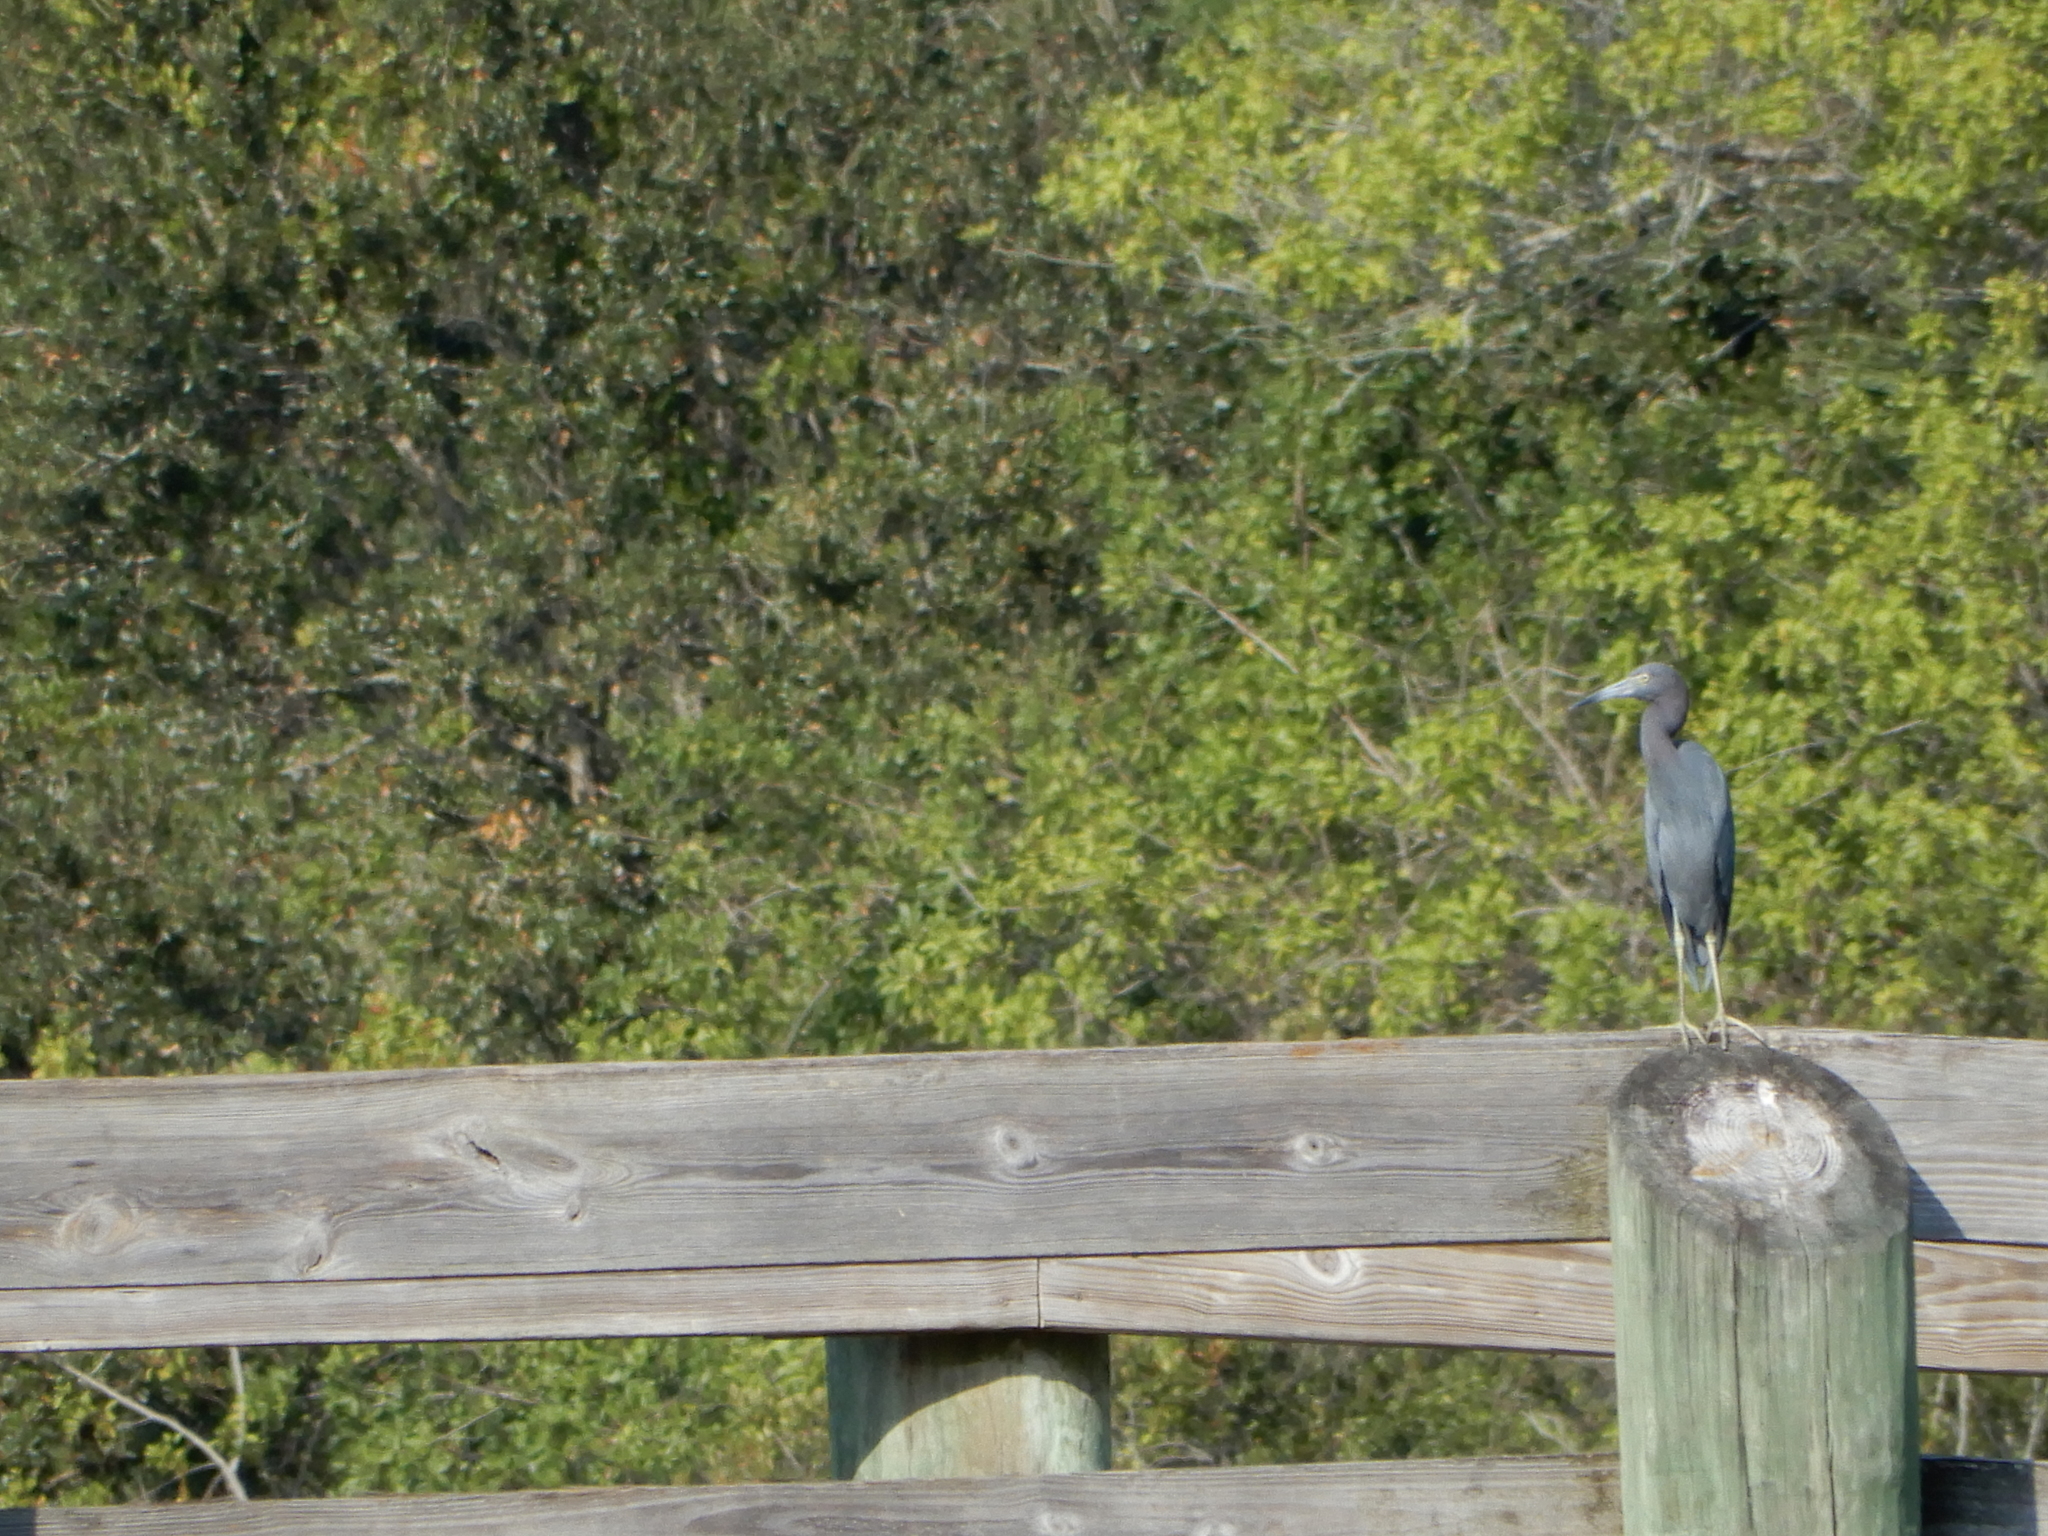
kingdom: Animalia
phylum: Chordata
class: Aves
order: Pelecaniformes
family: Ardeidae
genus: Egretta
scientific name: Egretta caerulea
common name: Little blue heron
